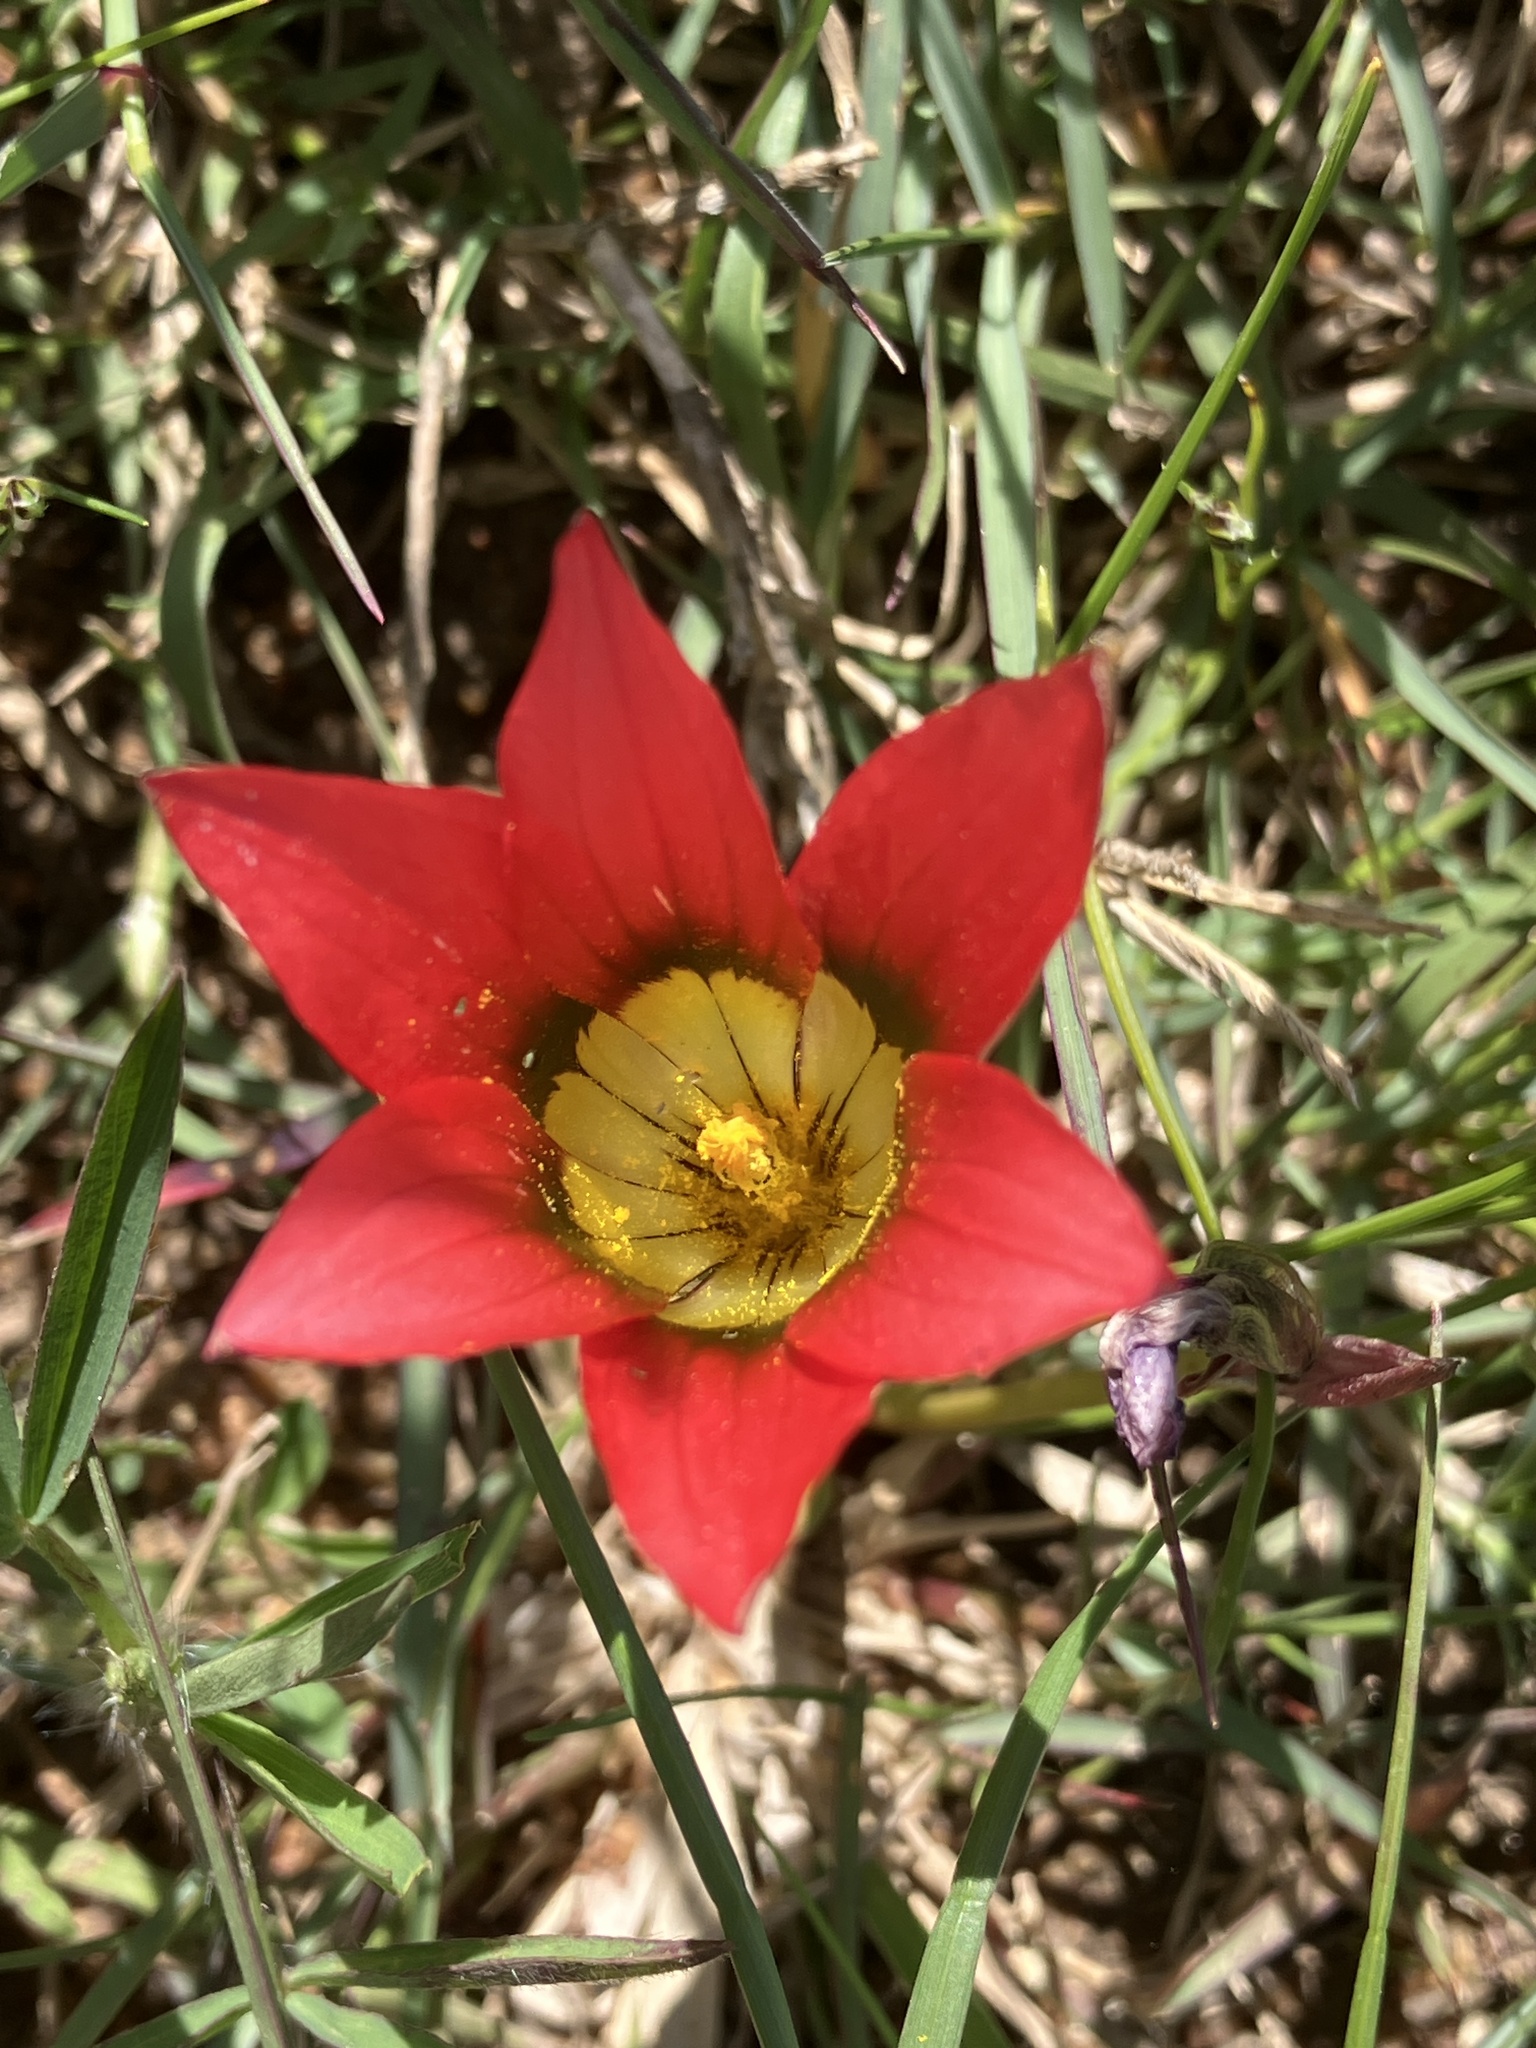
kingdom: Plantae
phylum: Tracheophyta
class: Liliopsida
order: Asparagales
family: Iridaceae
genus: Romulea
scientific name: Romulea eximia
